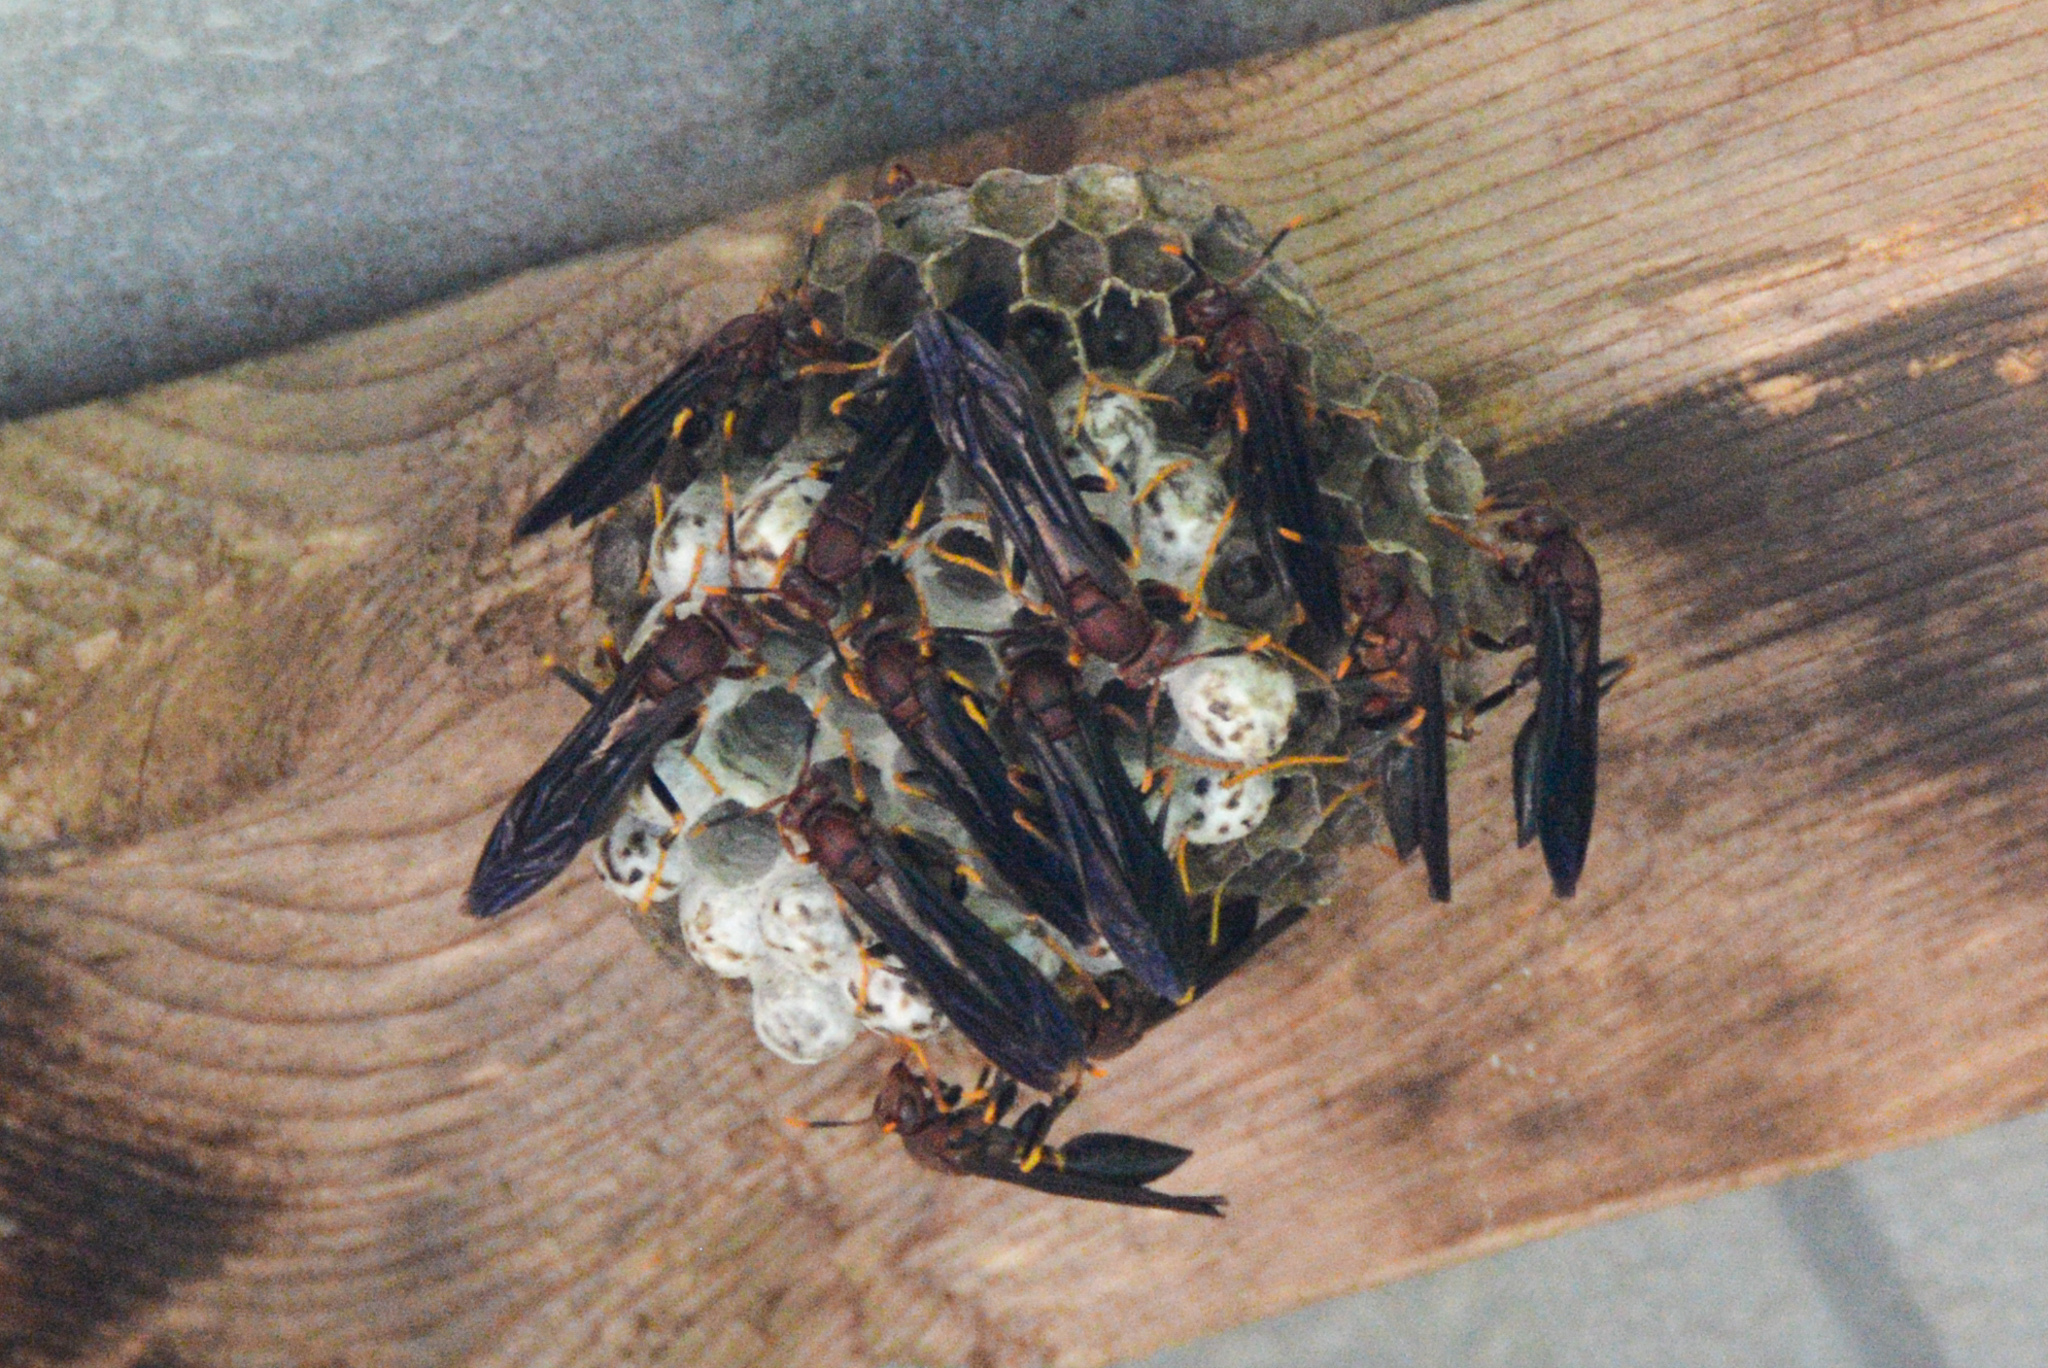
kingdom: Animalia
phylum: Arthropoda
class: Insecta
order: Hymenoptera
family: Eumenidae
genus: Polistes
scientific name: Polistes annularis
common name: Ringed paper wasp
